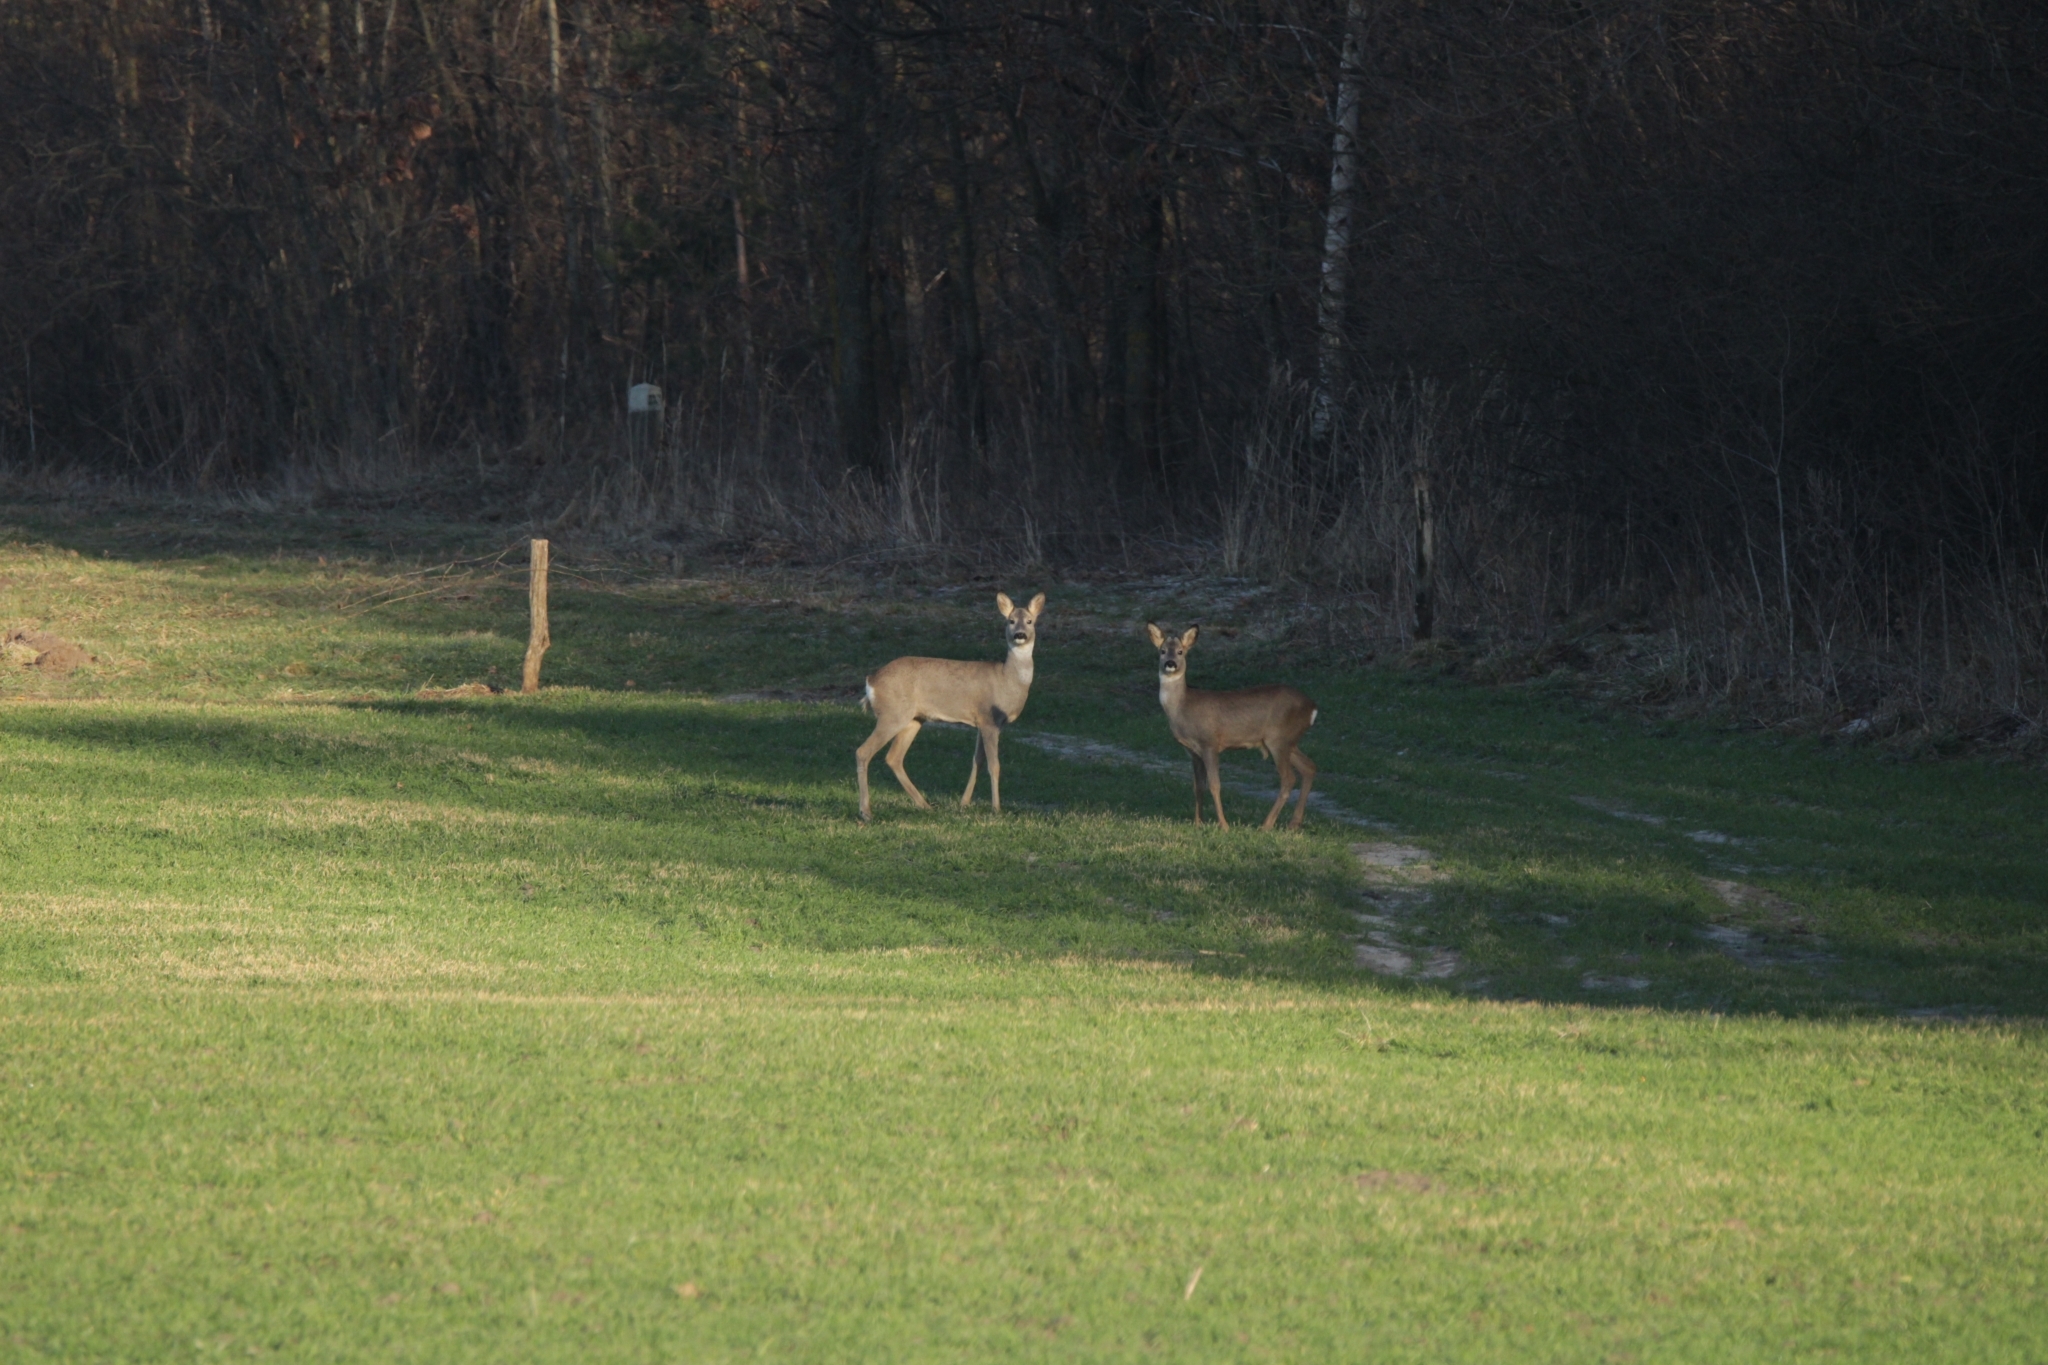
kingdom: Animalia
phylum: Chordata
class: Mammalia
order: Artiodactyla
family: Cervidae
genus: Capreolus
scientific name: Capreolus capreolus
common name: Western roe deer
